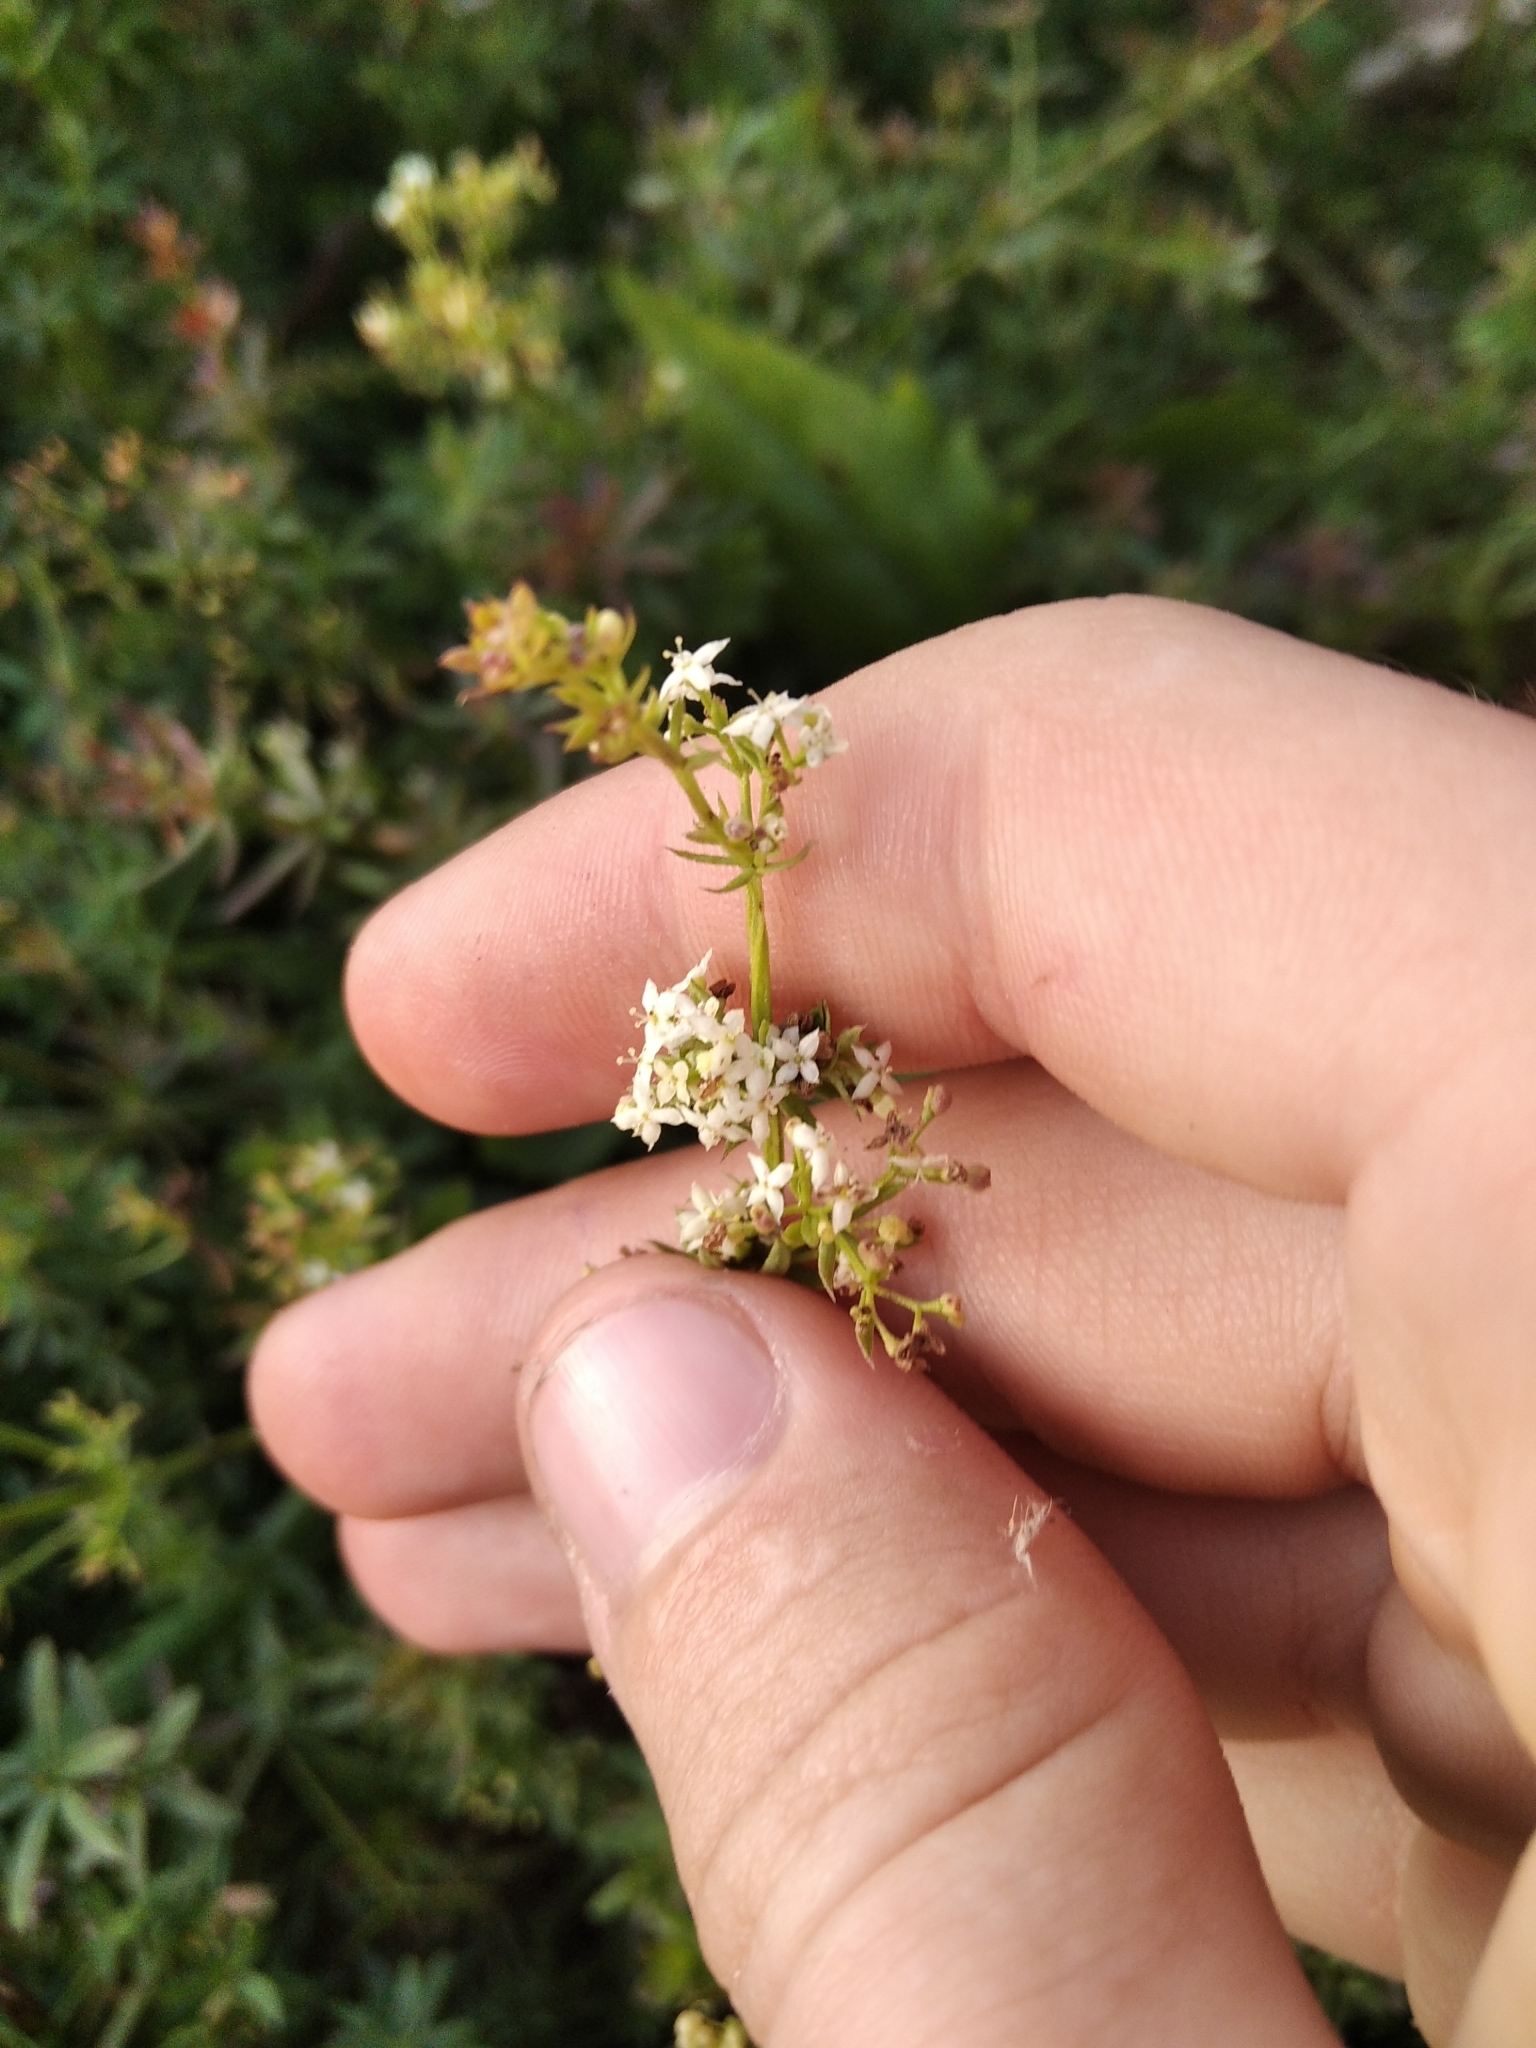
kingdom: Plantae
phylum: Tracheophyta
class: Magnoliopsida
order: Gentianales
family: Rubiaceae
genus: Galium
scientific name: Galium mollugo
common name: Hedge bedstraw
